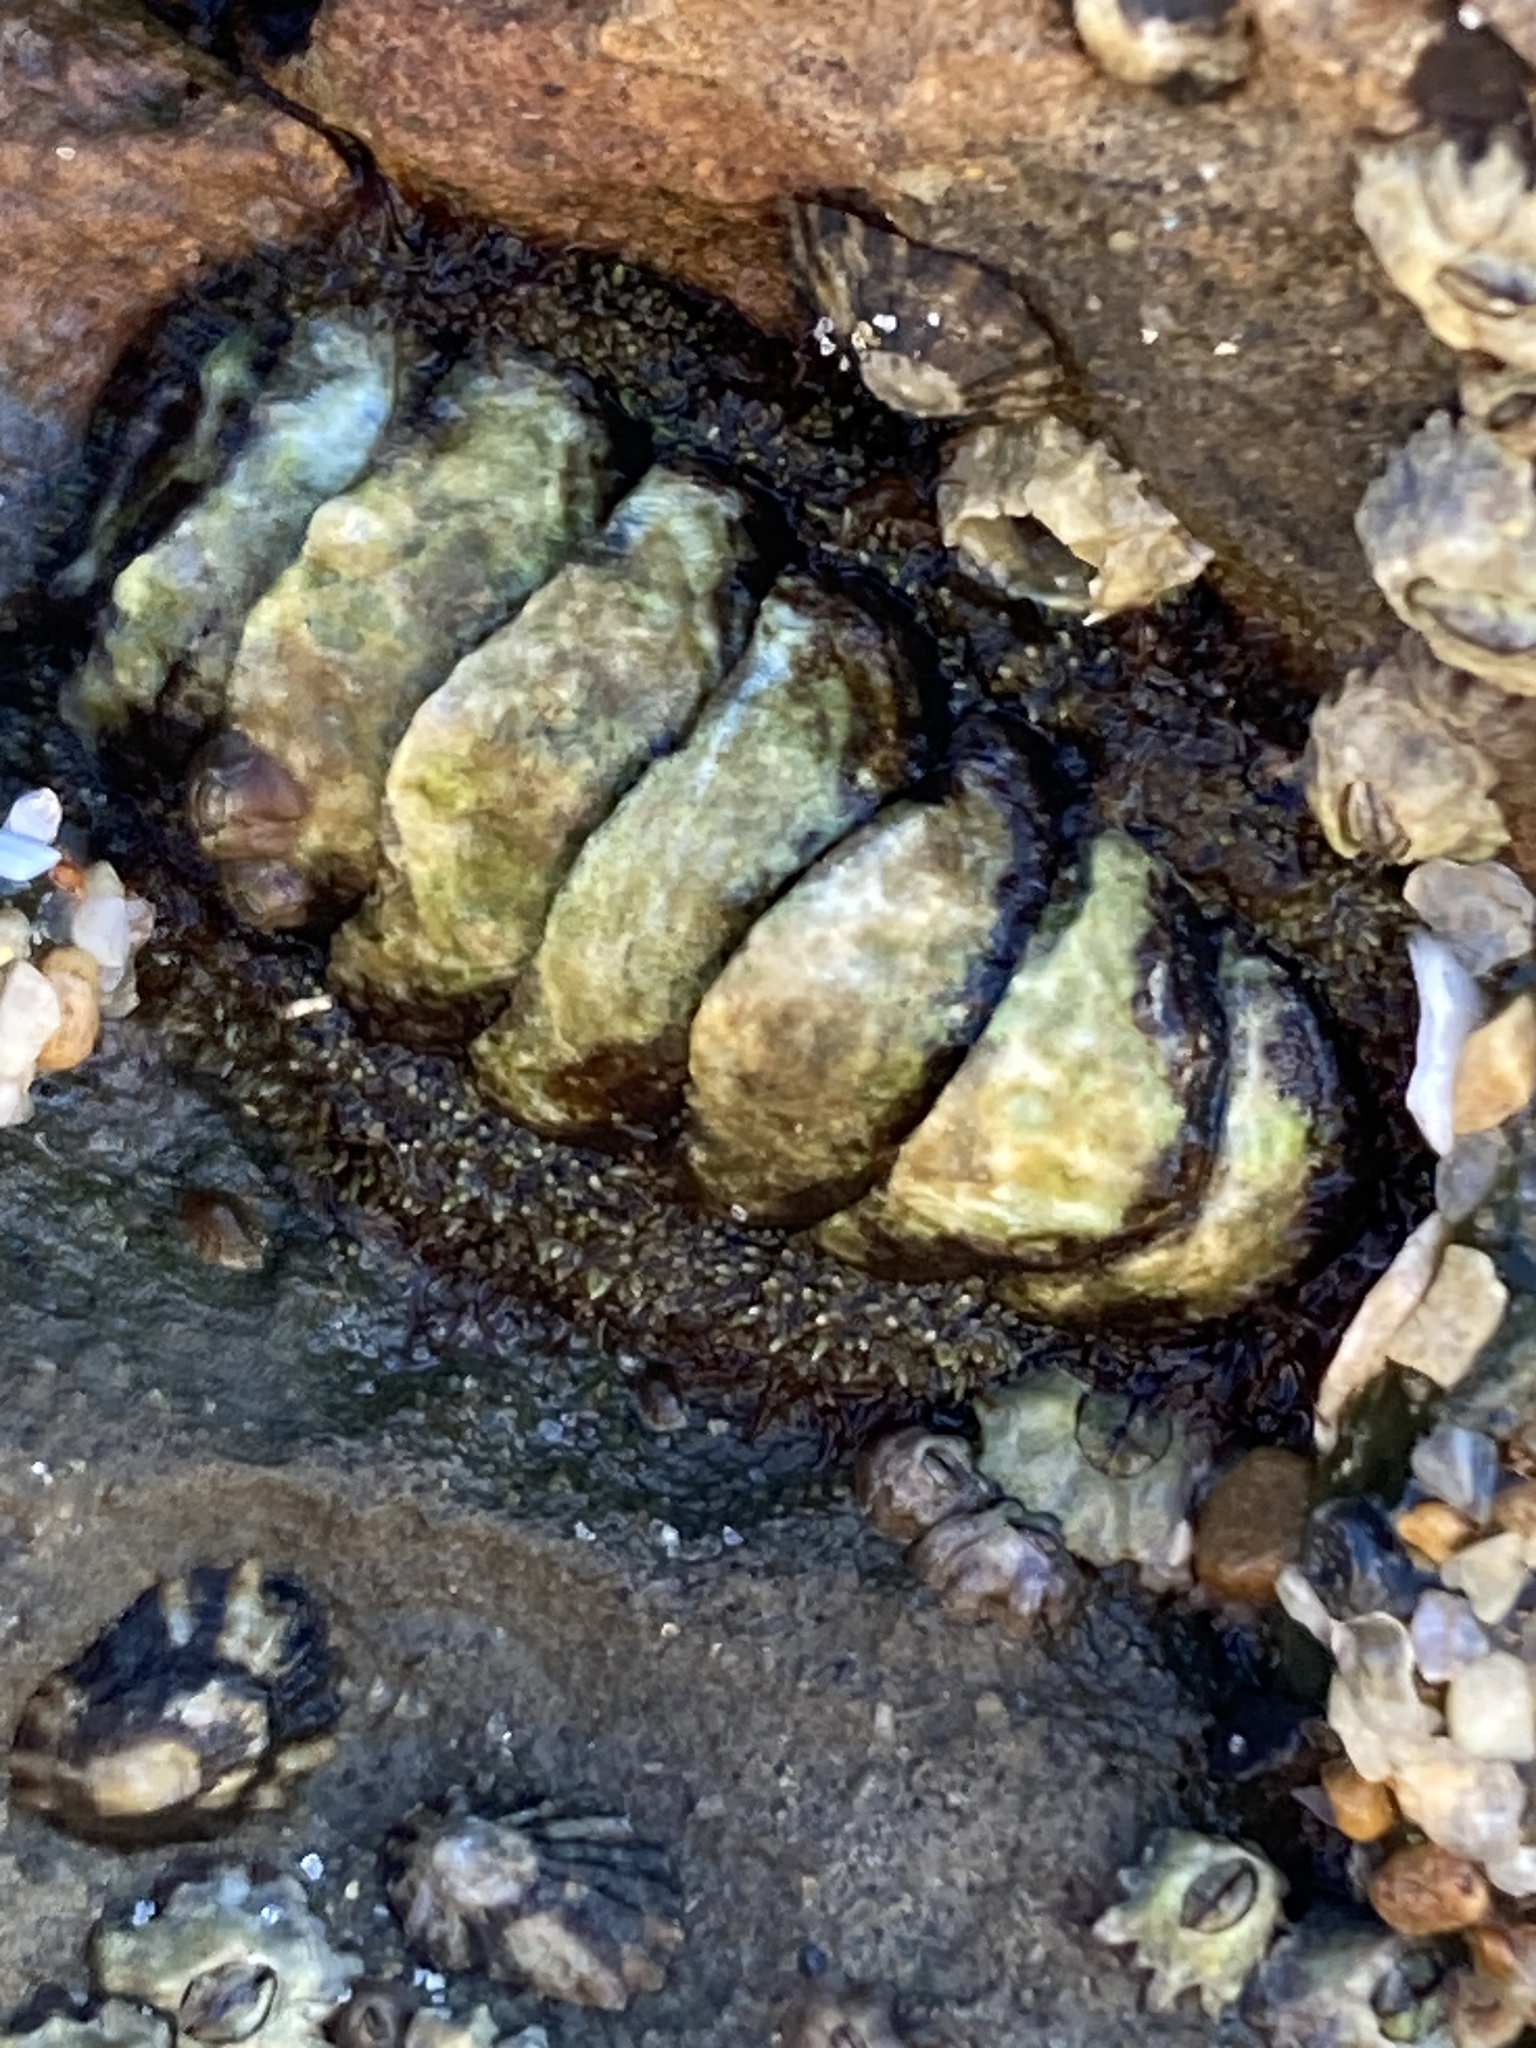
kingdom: Animalia
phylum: Mollusca
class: Polyplacophora
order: Chitonida
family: Tonicellidae
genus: Nuttallina
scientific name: Nuttallina californica
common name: California nuttall chiton
